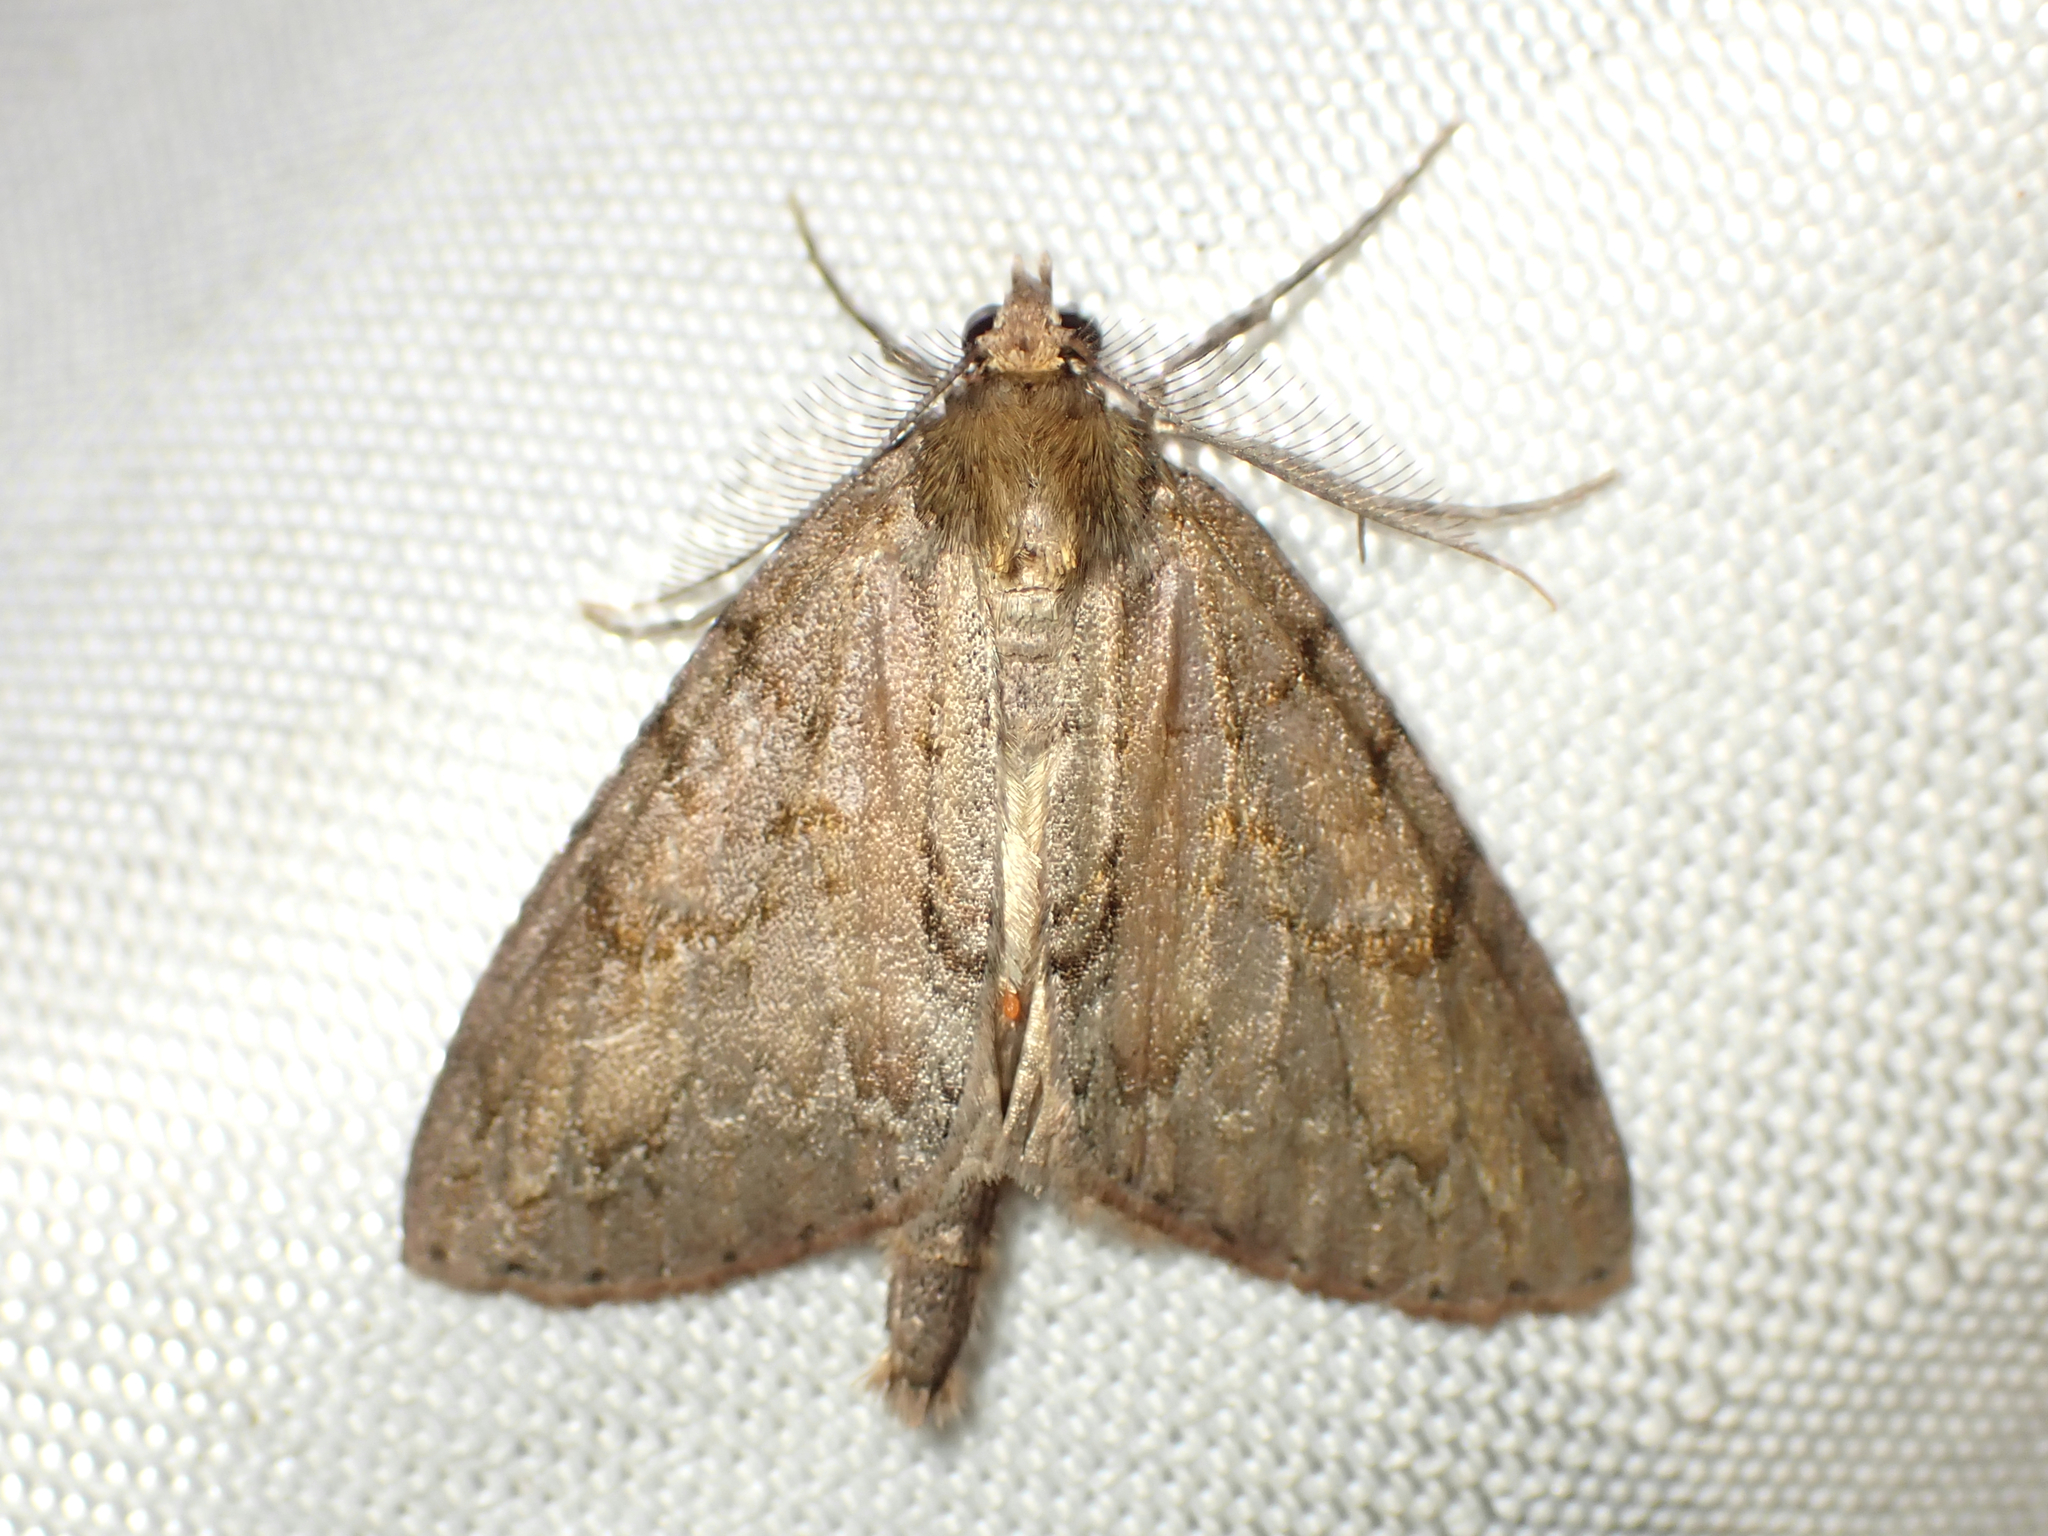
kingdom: Animalia
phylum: Arthropoda
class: Insecta
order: Lepidoptera
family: Geometridae
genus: Pseudocoremia
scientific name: Pseudocoremia suavis
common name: Common forest looper
